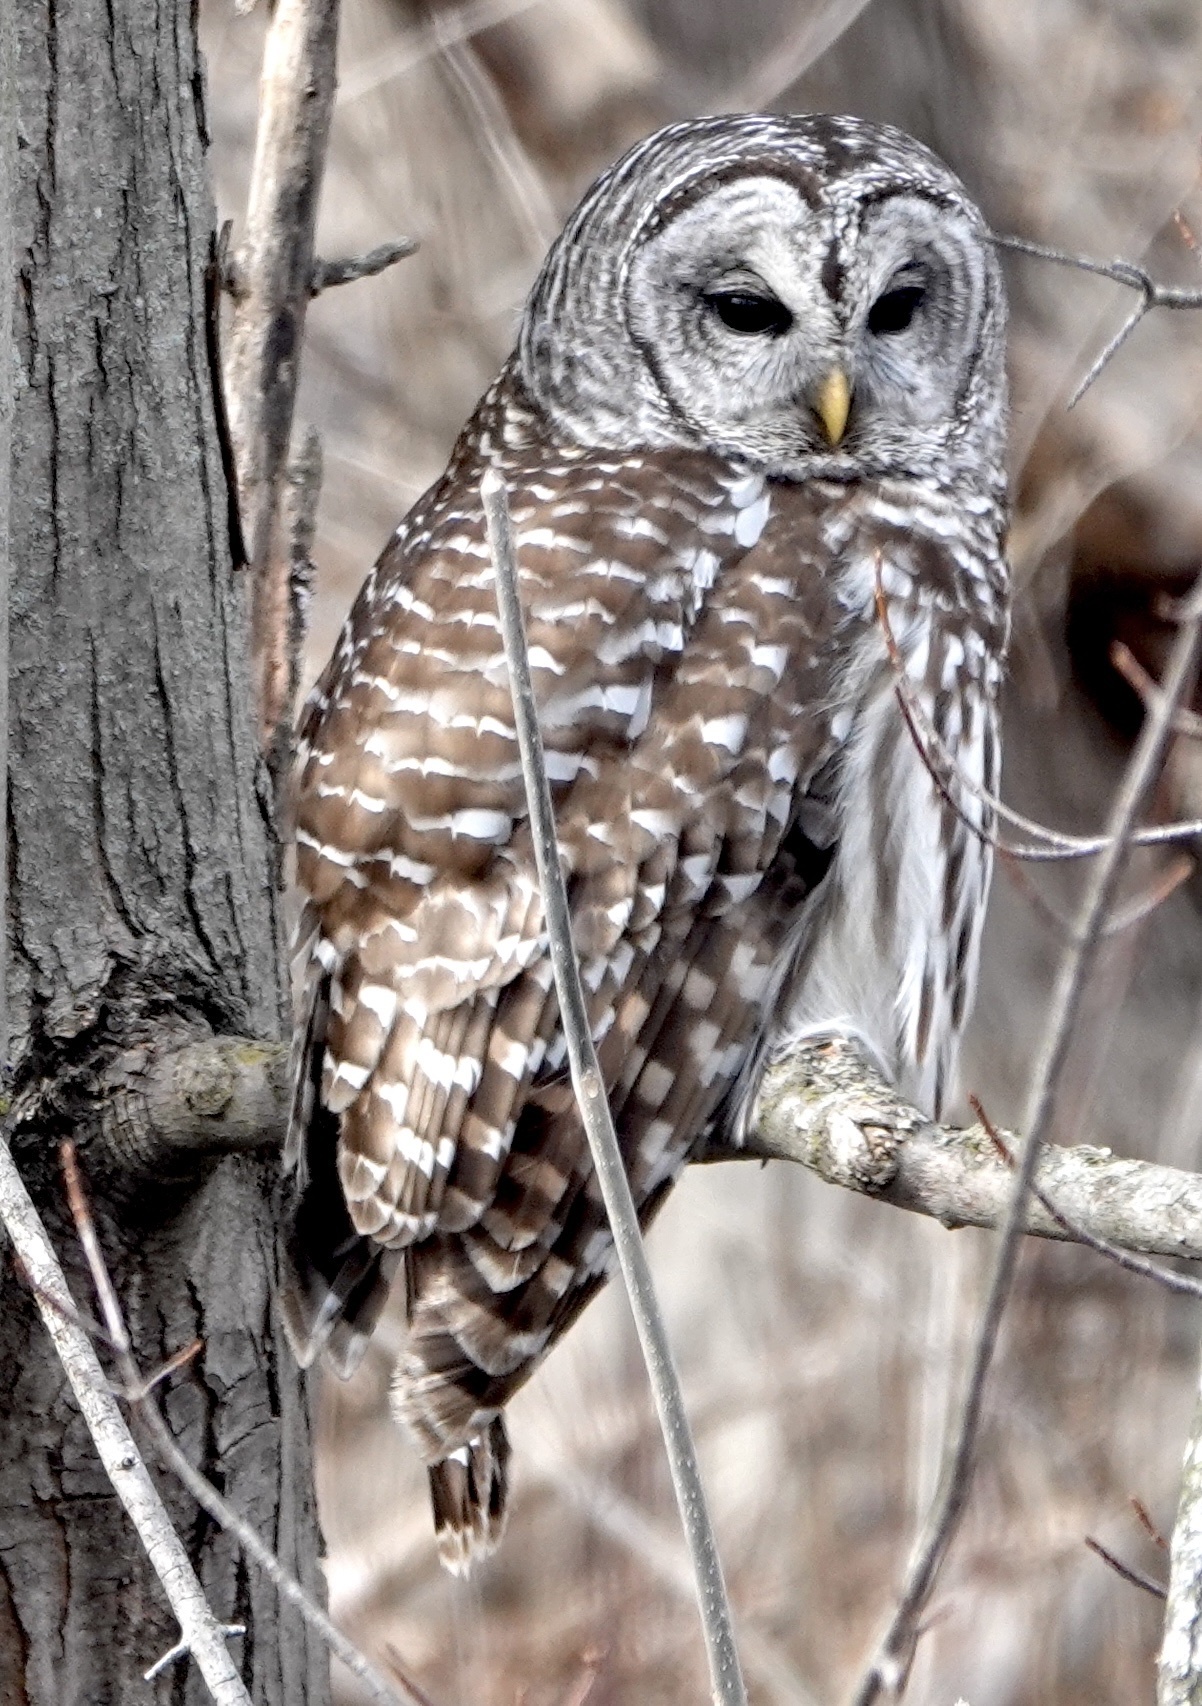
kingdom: Animalia
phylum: Chordata
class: Aves
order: Strigiformes
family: Strigidae
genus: Strix
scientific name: Strix varia
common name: Barred owl
